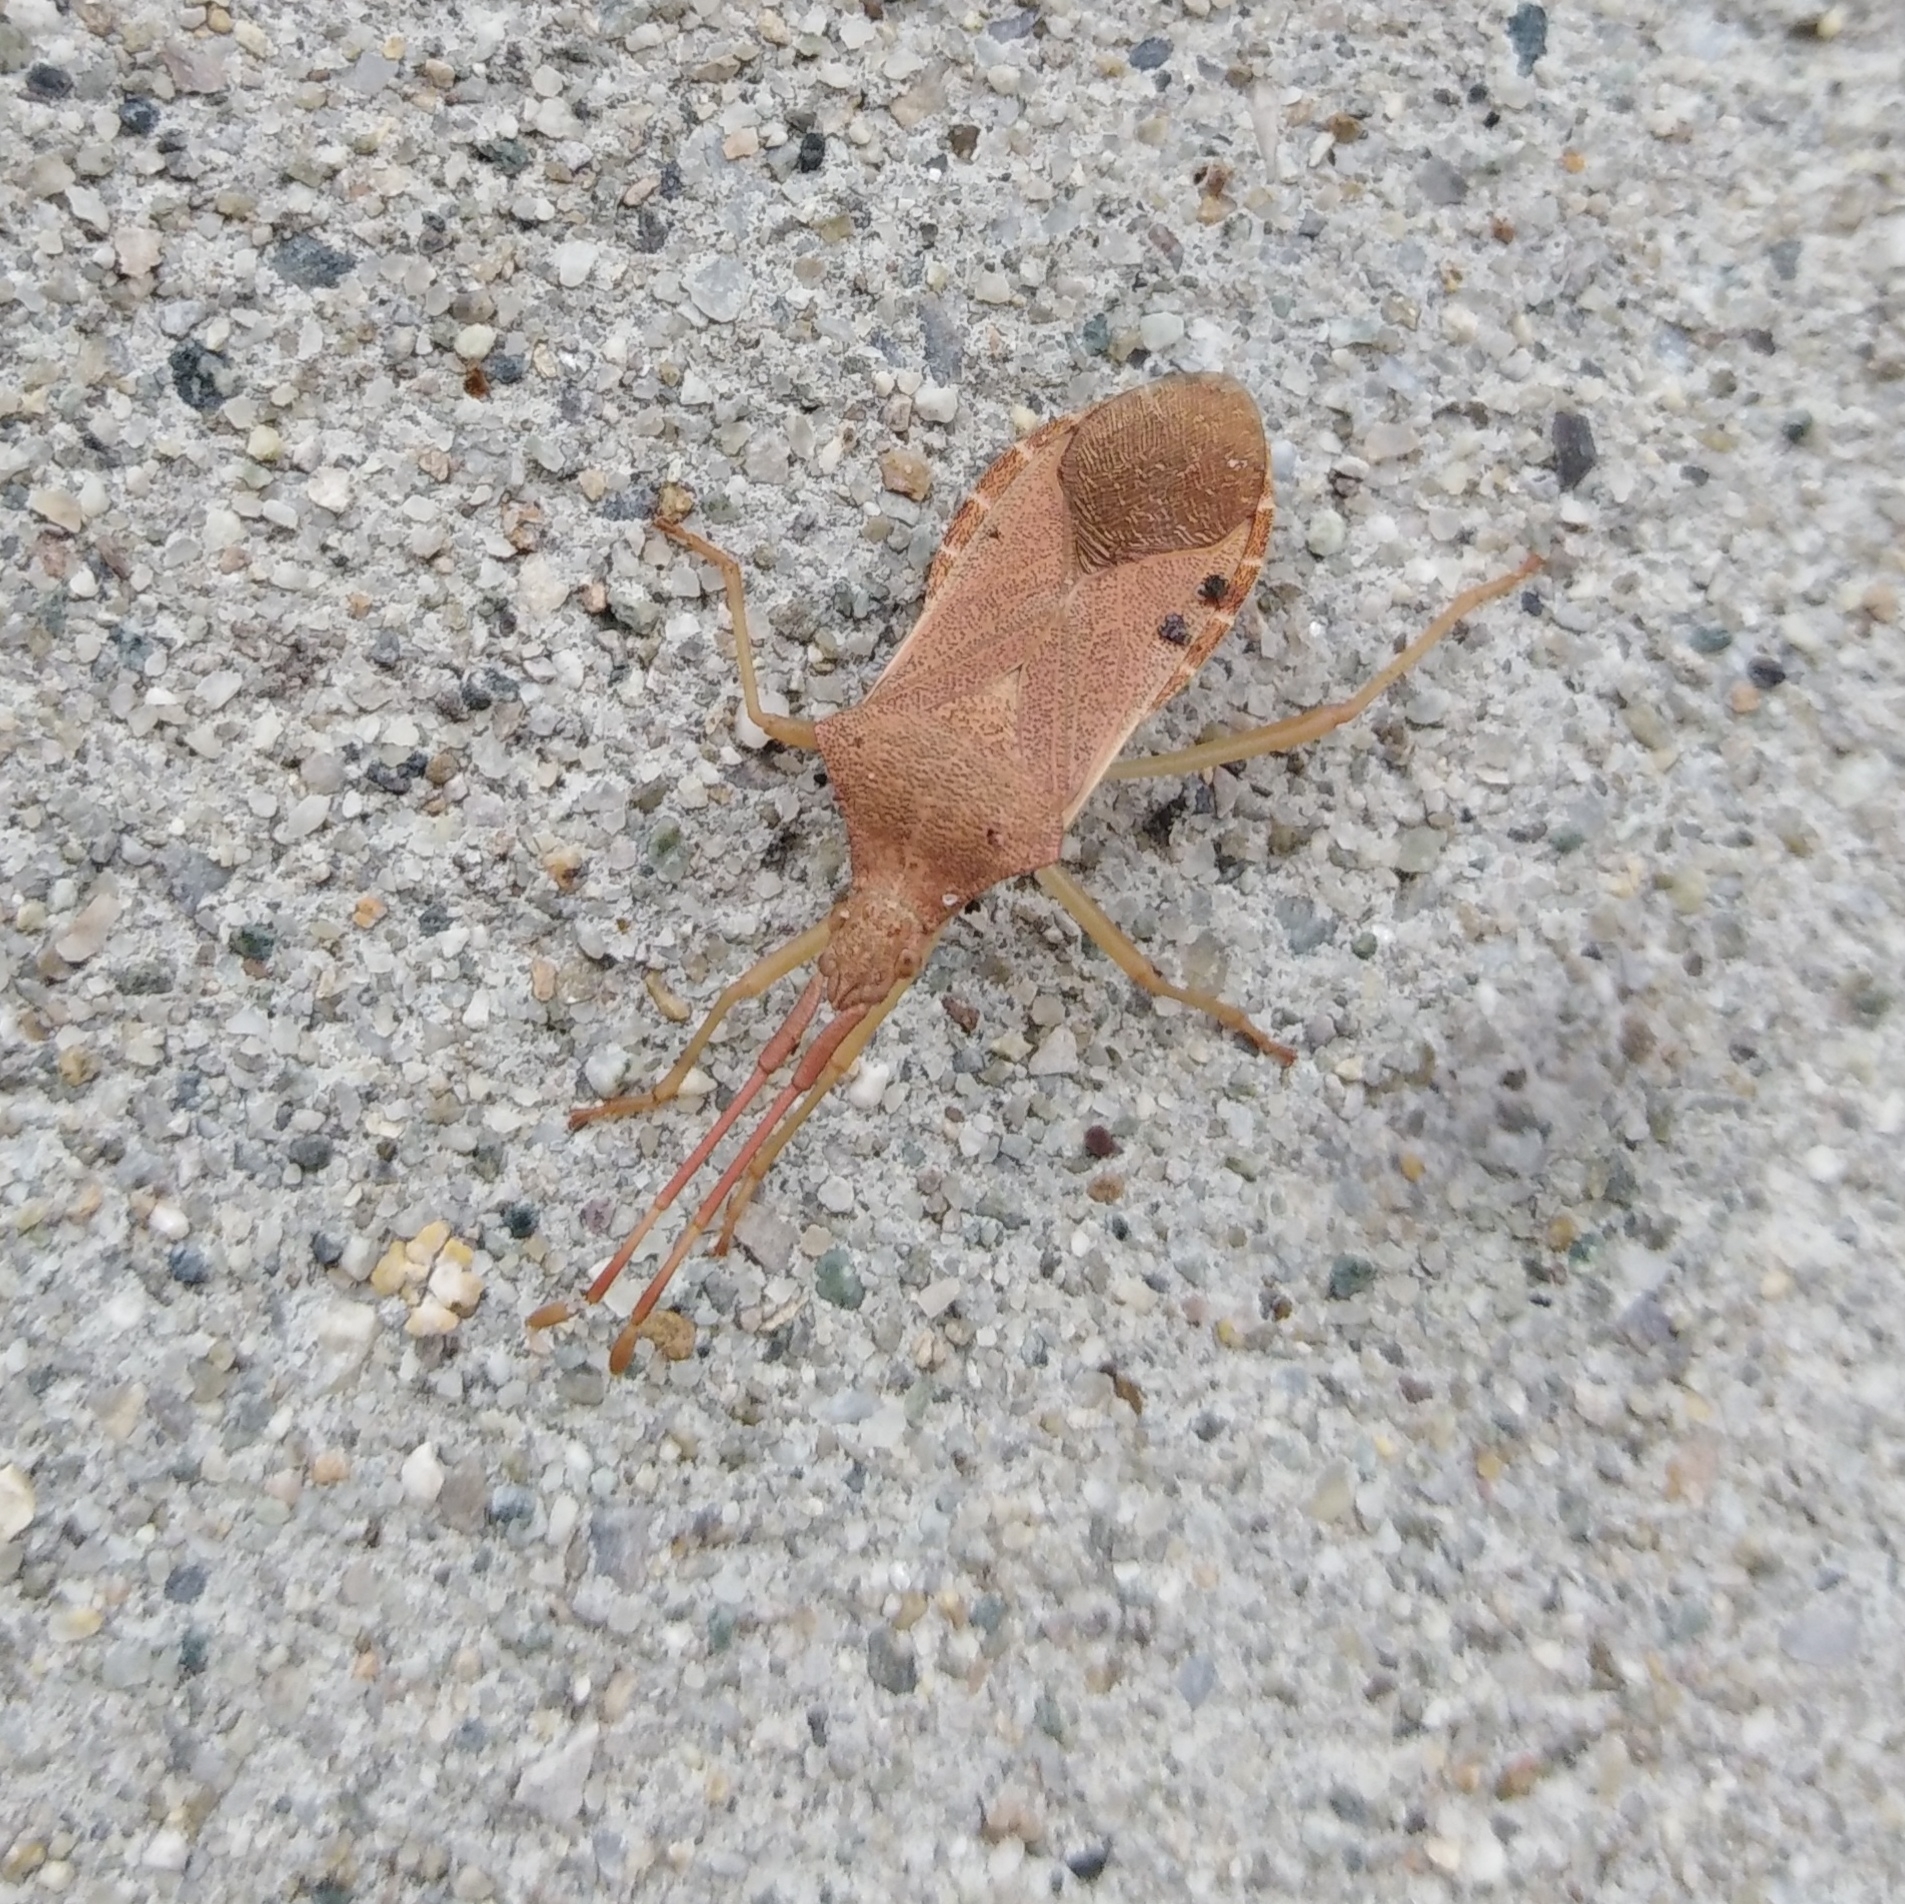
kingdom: Animalia
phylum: Arthropoda
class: Insecta
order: Hemiptera
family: Coreidae
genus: Gonocerus
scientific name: Gonocerus acuteangulatus
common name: Box bug
